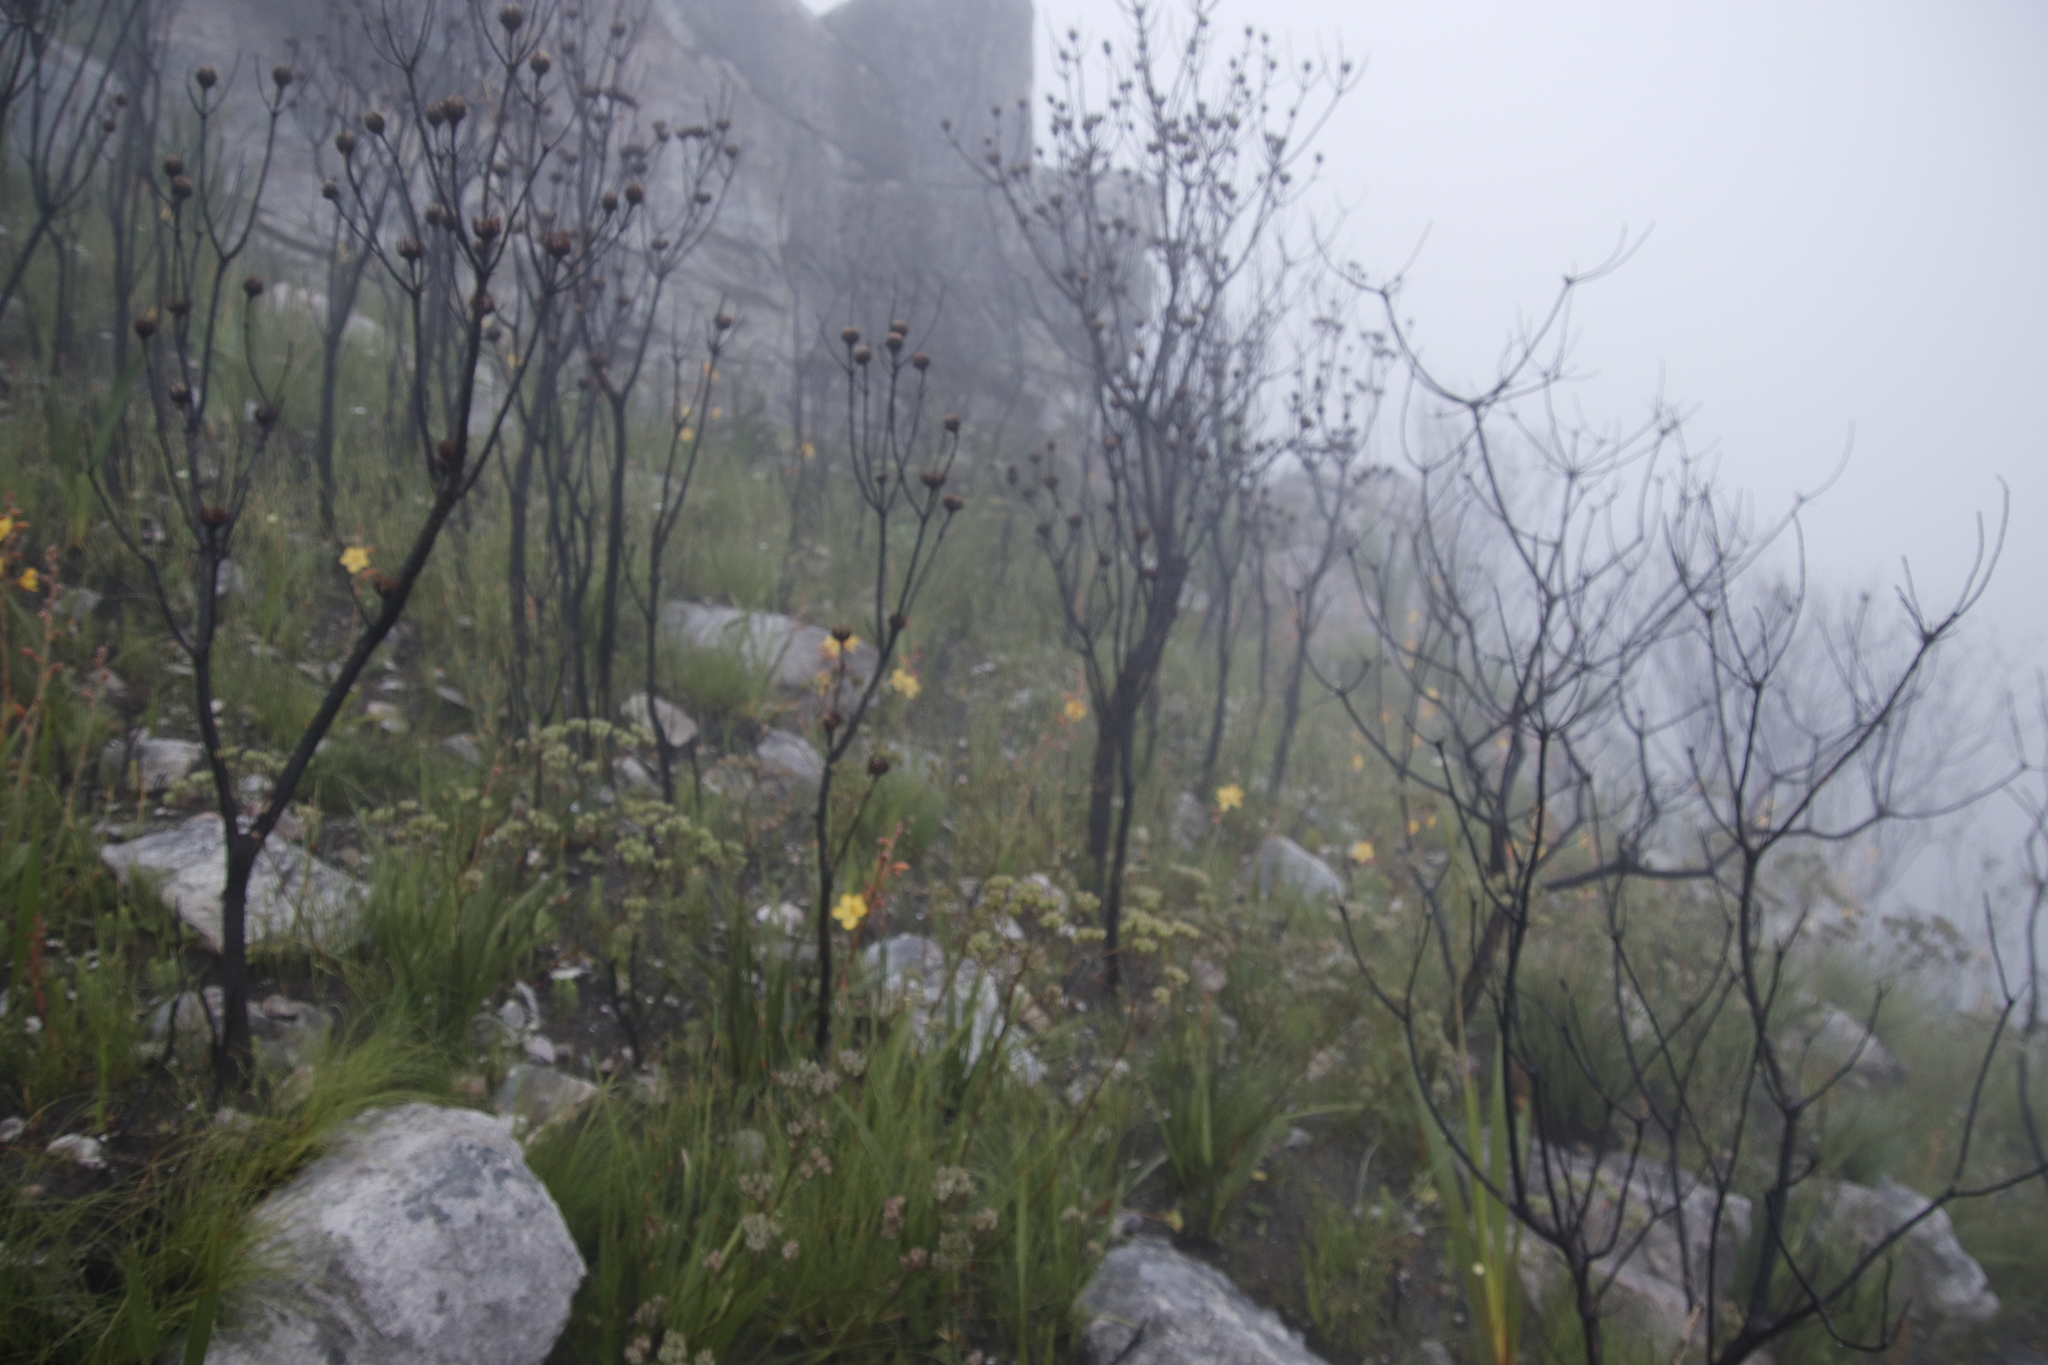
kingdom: Plantae
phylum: Tracheophyta
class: Liliopsida
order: Commelinales
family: Haemodoraceae
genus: Wachendorfia
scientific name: Wachendorfia paniculata
